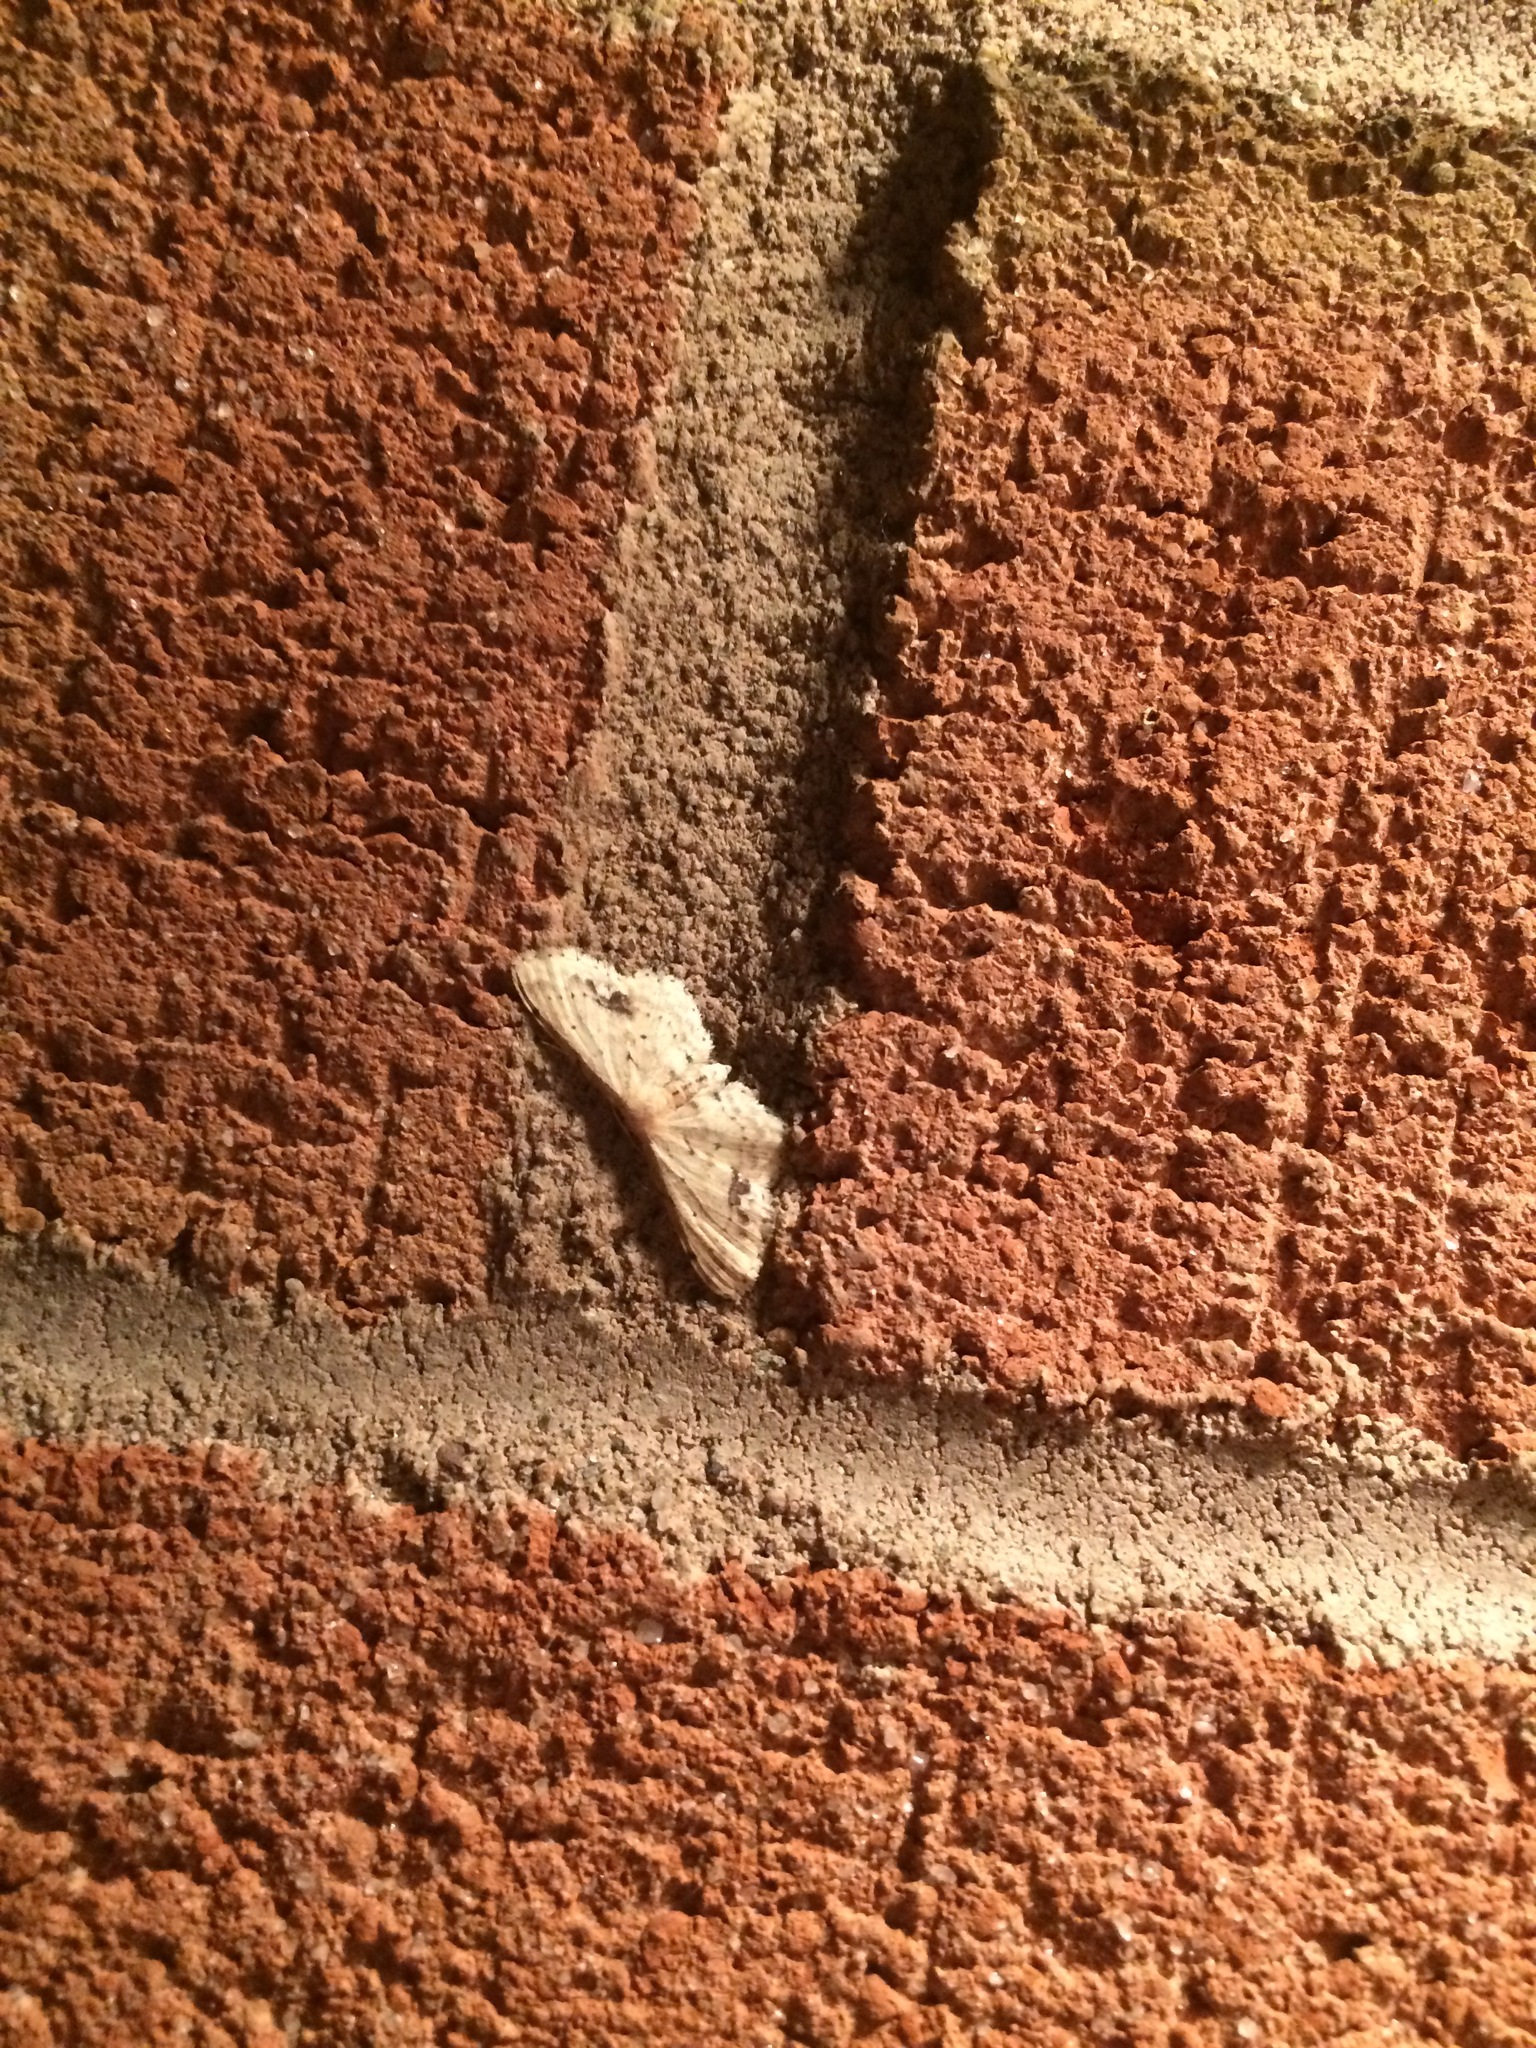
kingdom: Animalia
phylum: Arthropoda
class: Insecta
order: Lepidoptera
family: Geometridae
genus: Idaea
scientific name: Idaea dimidiata
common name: Single-dotted wave
